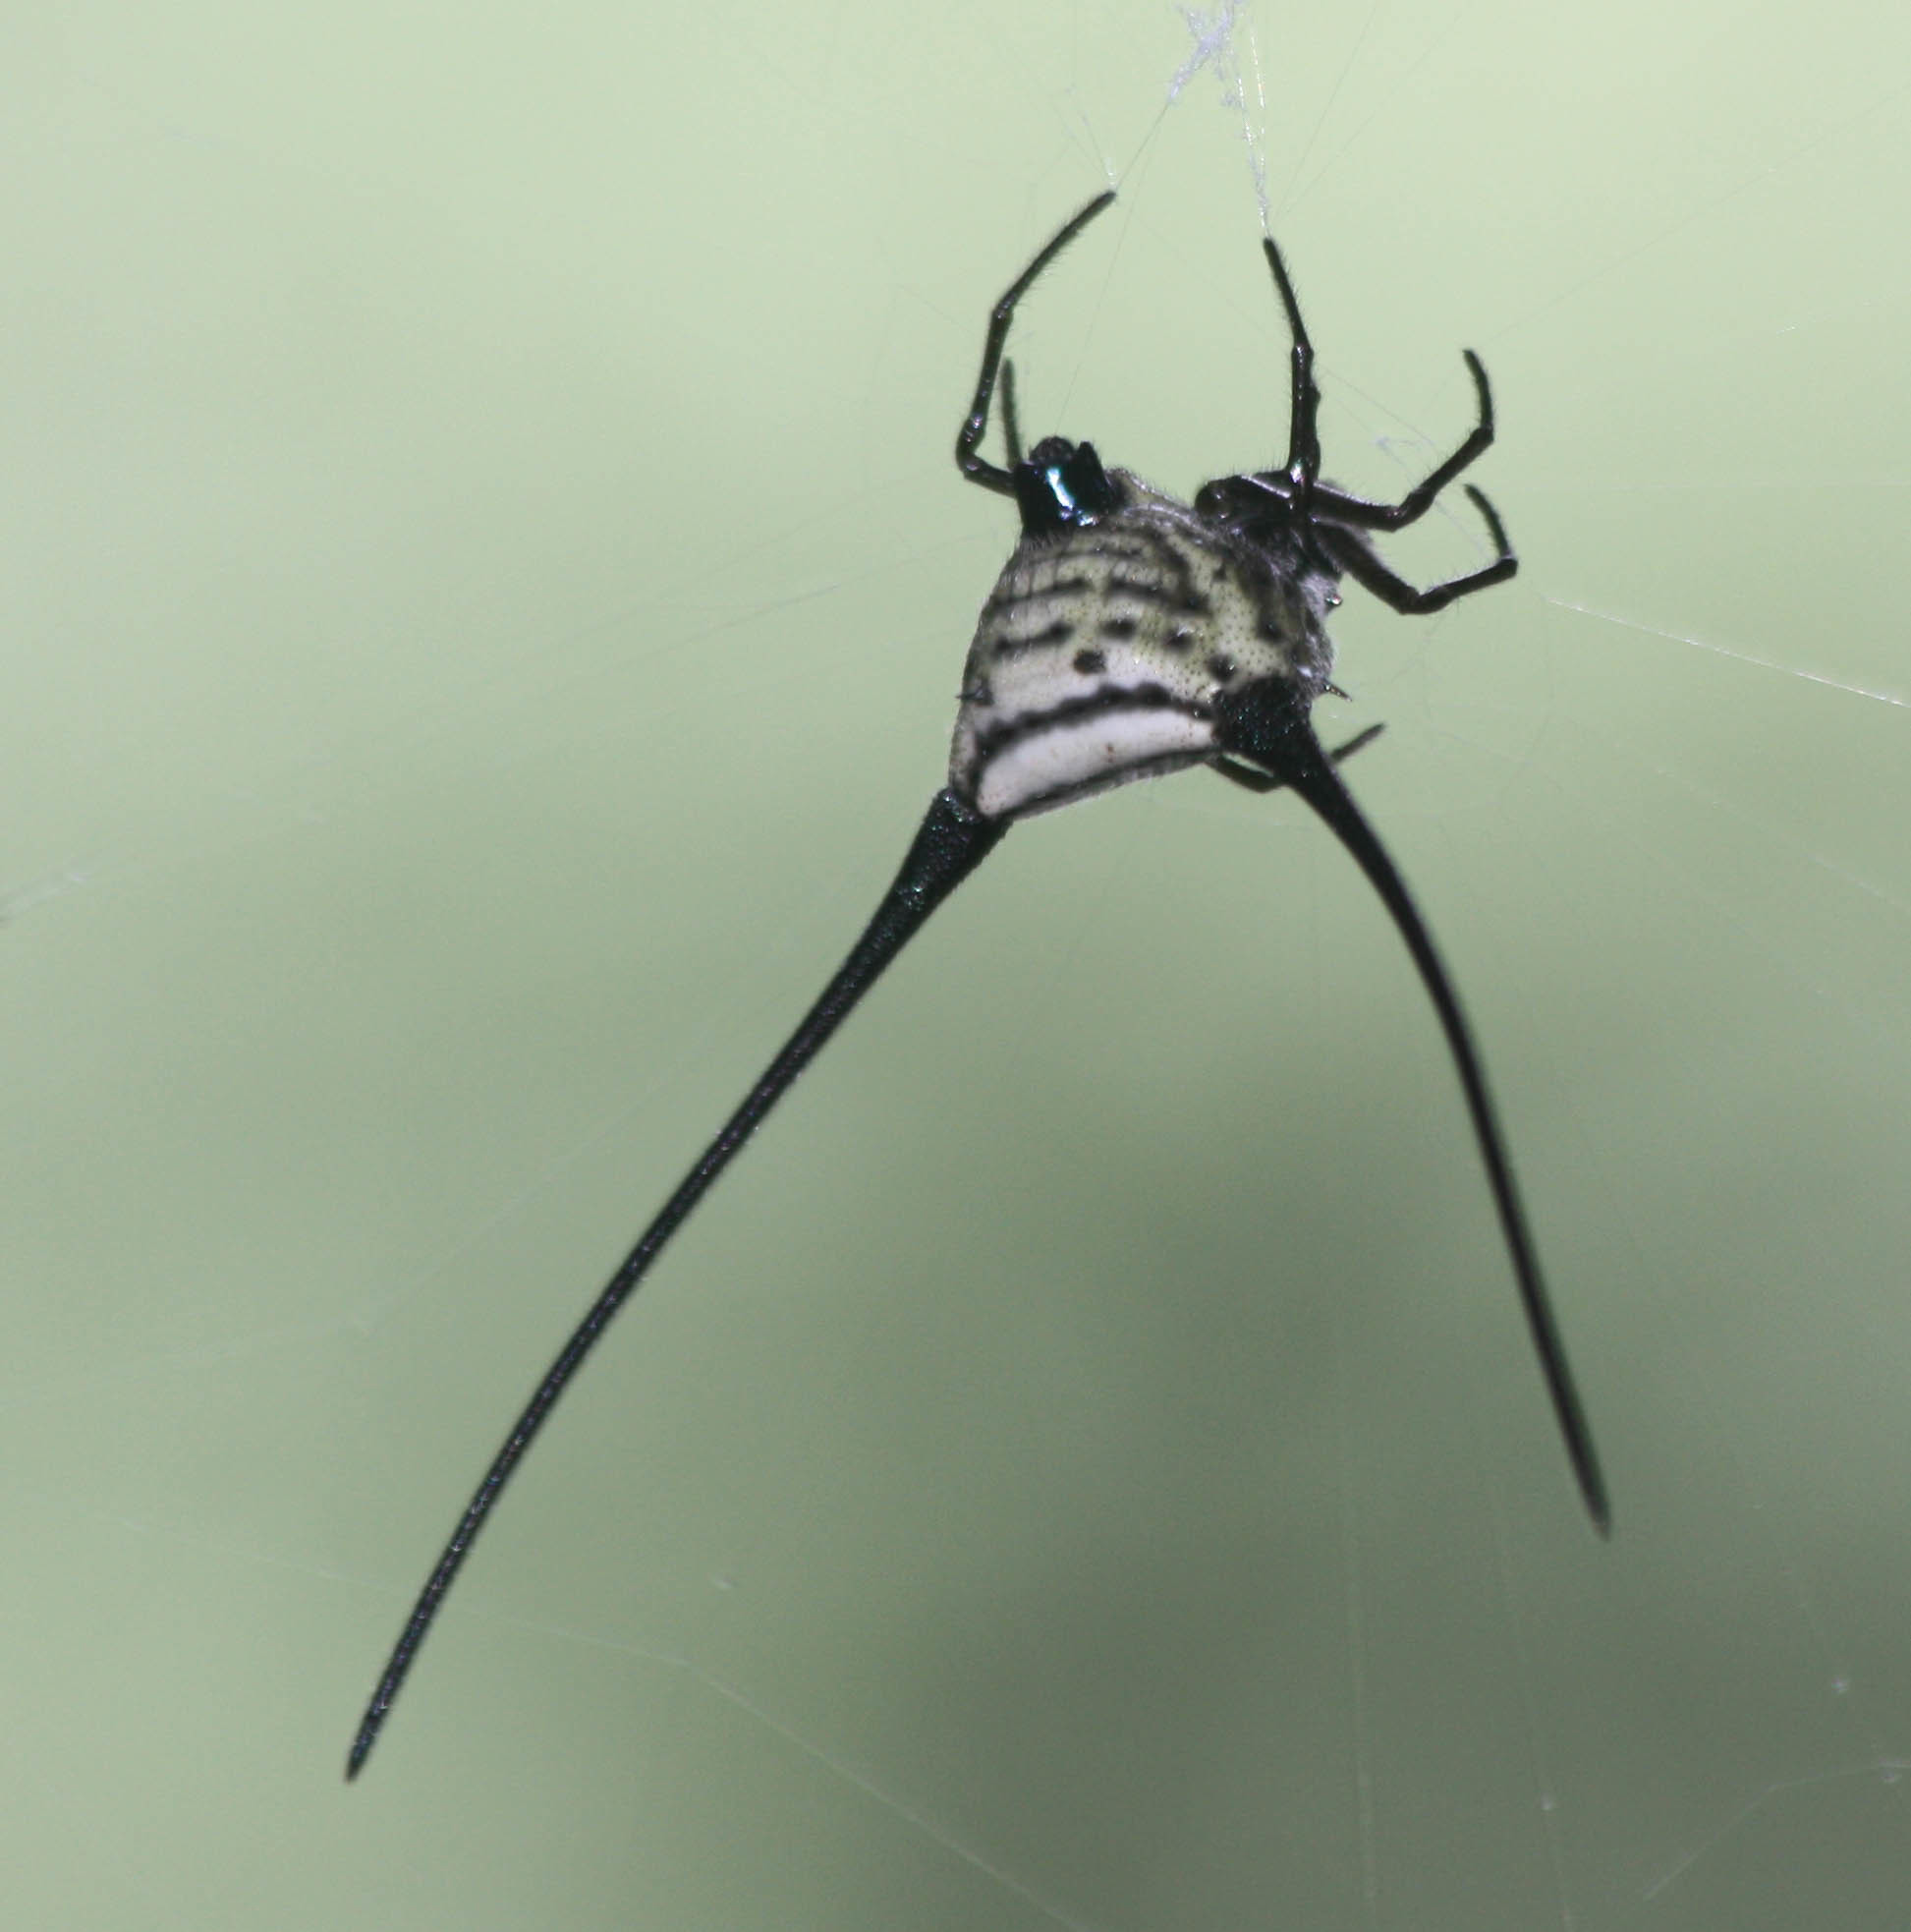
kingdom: Animalia
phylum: Arthropoda
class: Arachnida
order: Araneae
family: Araneidae
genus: Macracantha
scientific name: Macracantha arcuata
